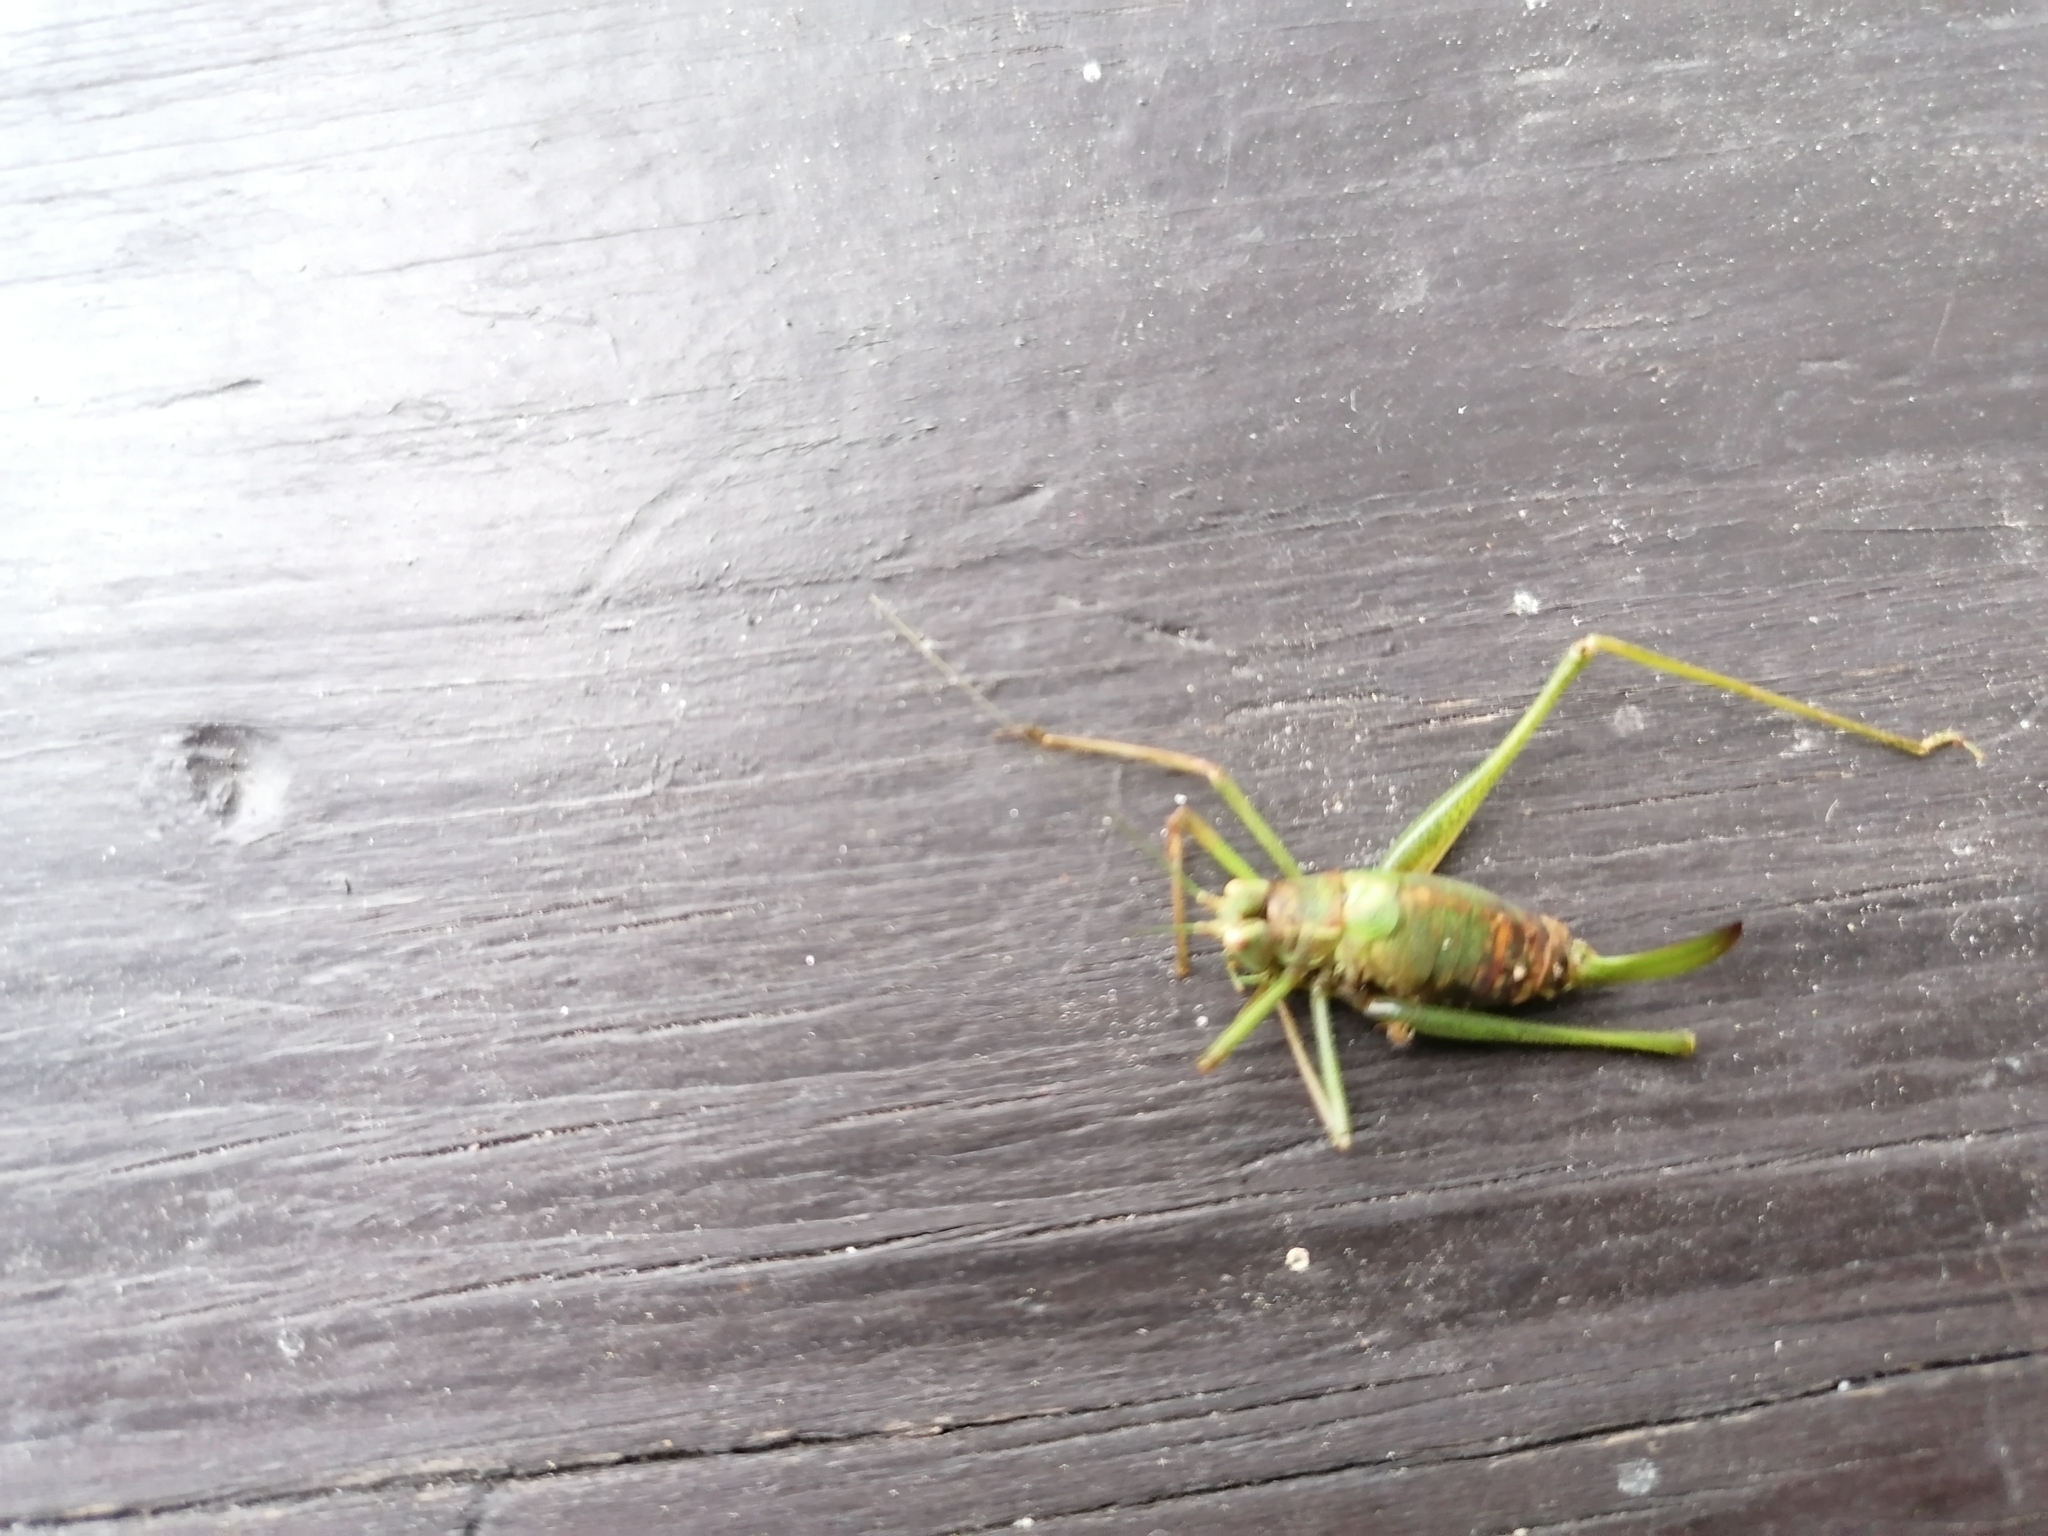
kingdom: Animalia
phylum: Arthropoda
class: Insecta
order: Orthoptera
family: Tettigoniidae
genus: Leptophyes
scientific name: Leptophyes punctatissima
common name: Speckled bush-cricket
